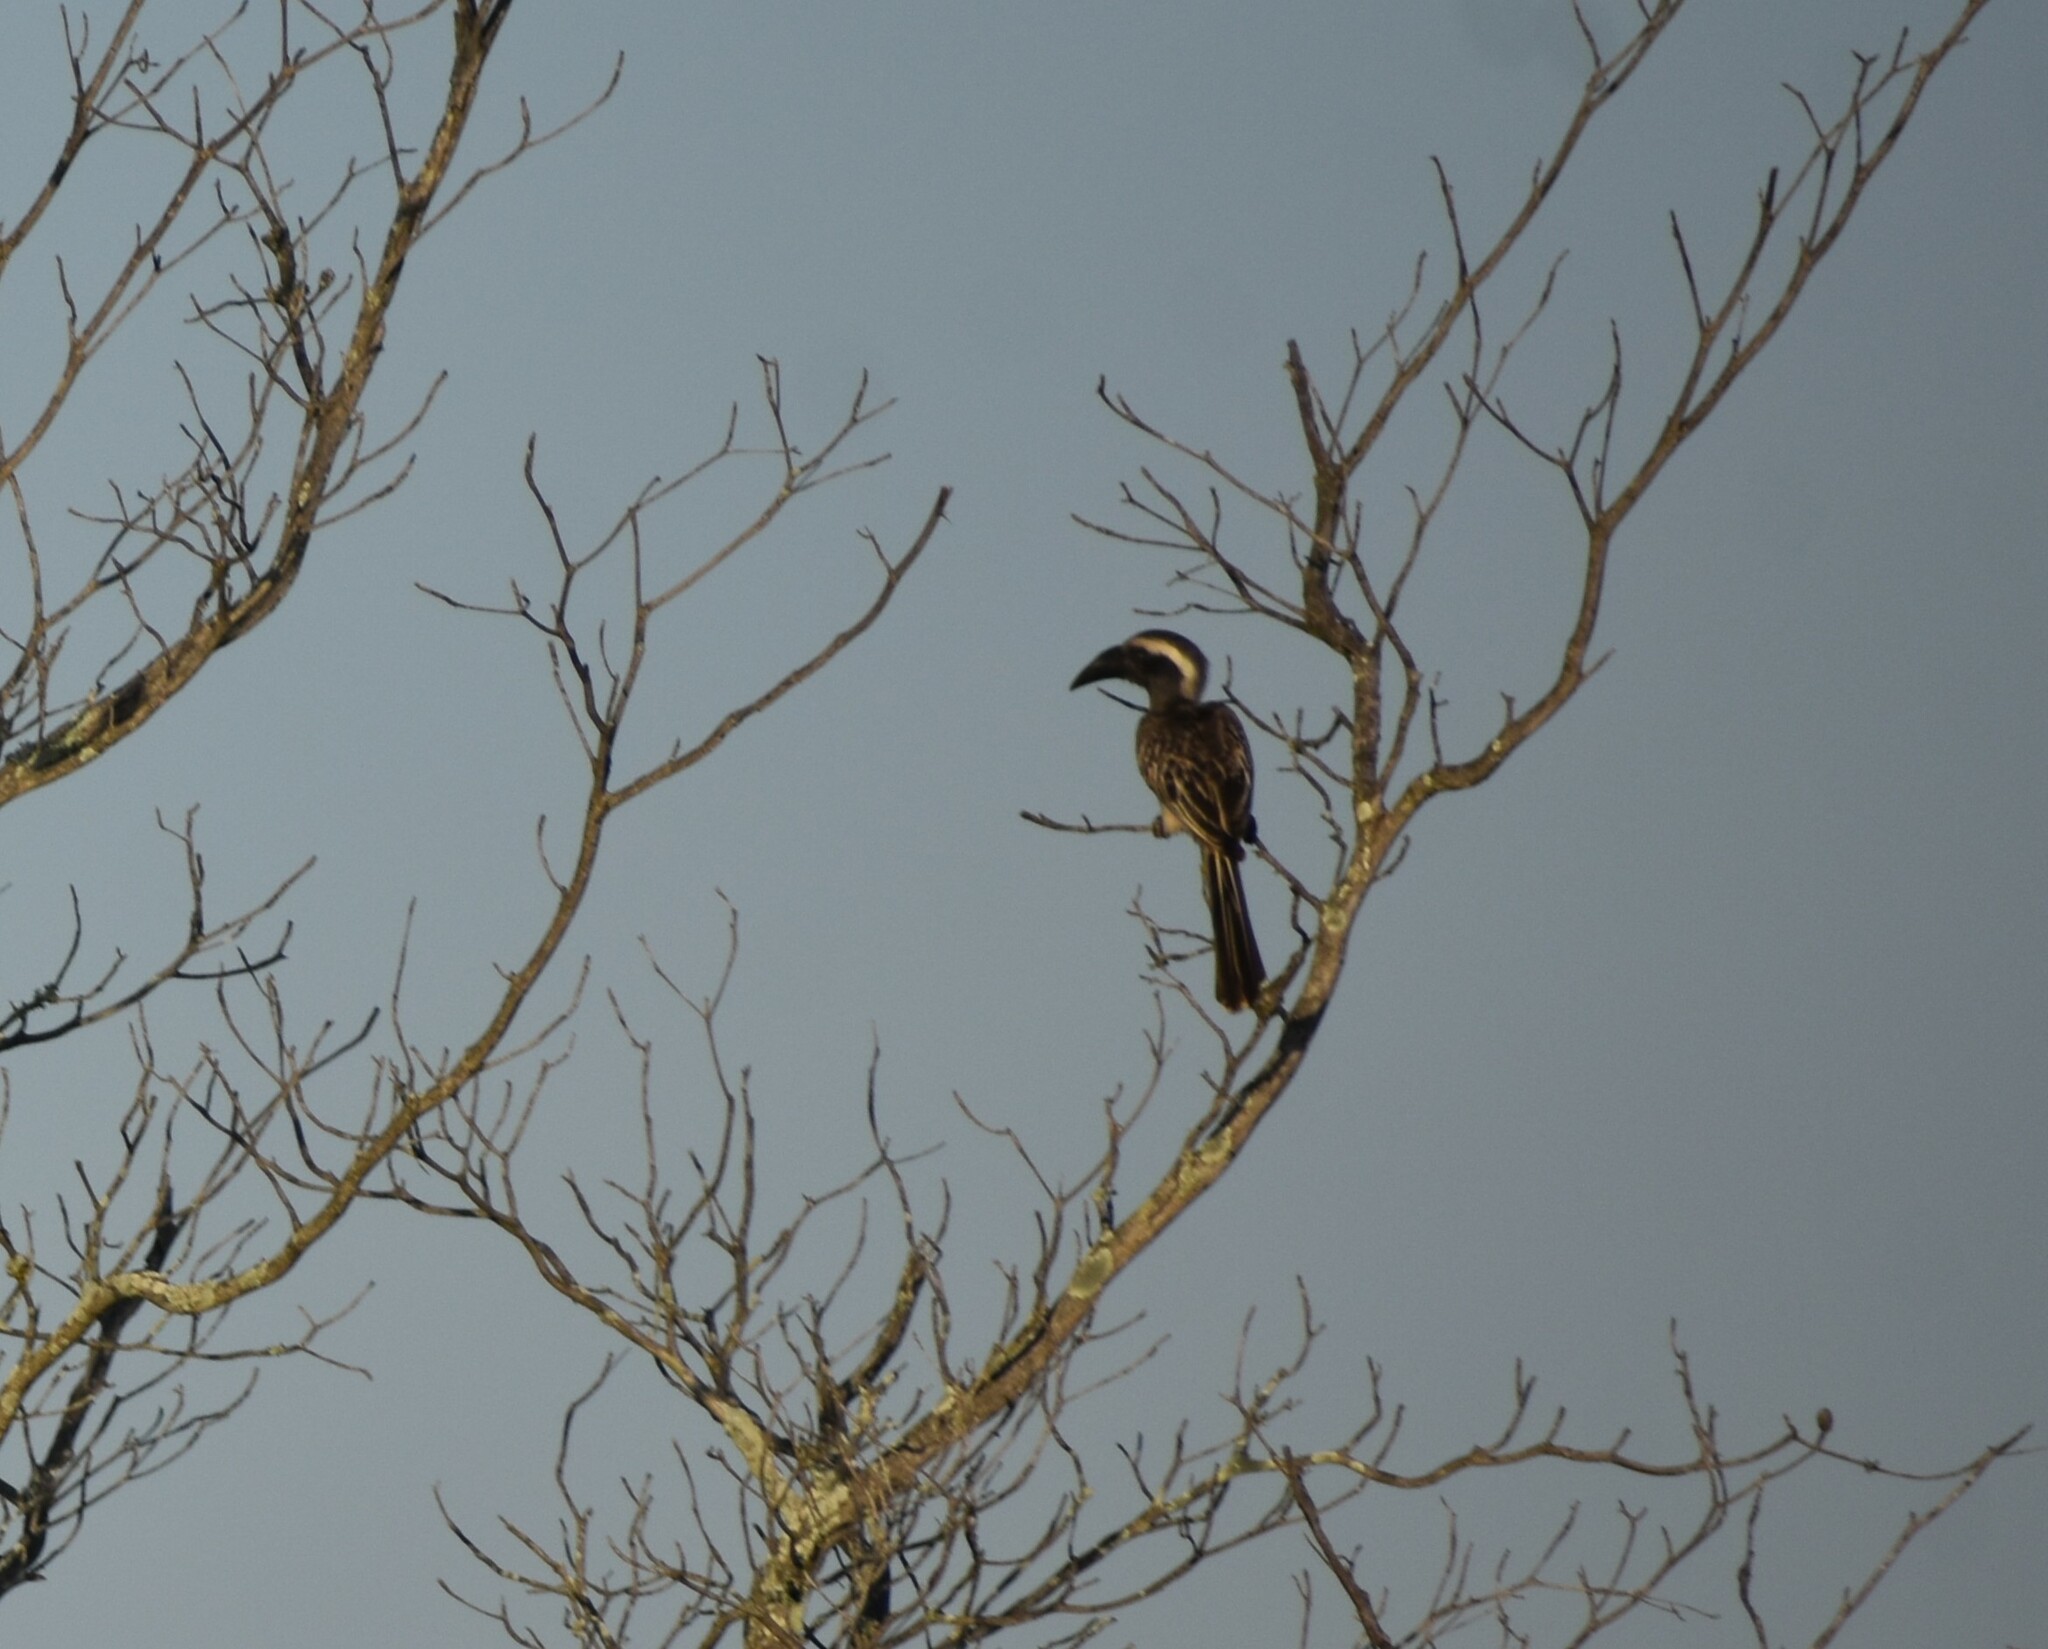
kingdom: Animalia
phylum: Chordata
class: Aves
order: Bucerotiformes
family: Bucerotidae
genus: Lophoceros
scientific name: Lophoceros nasutus
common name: African grey hornbill
